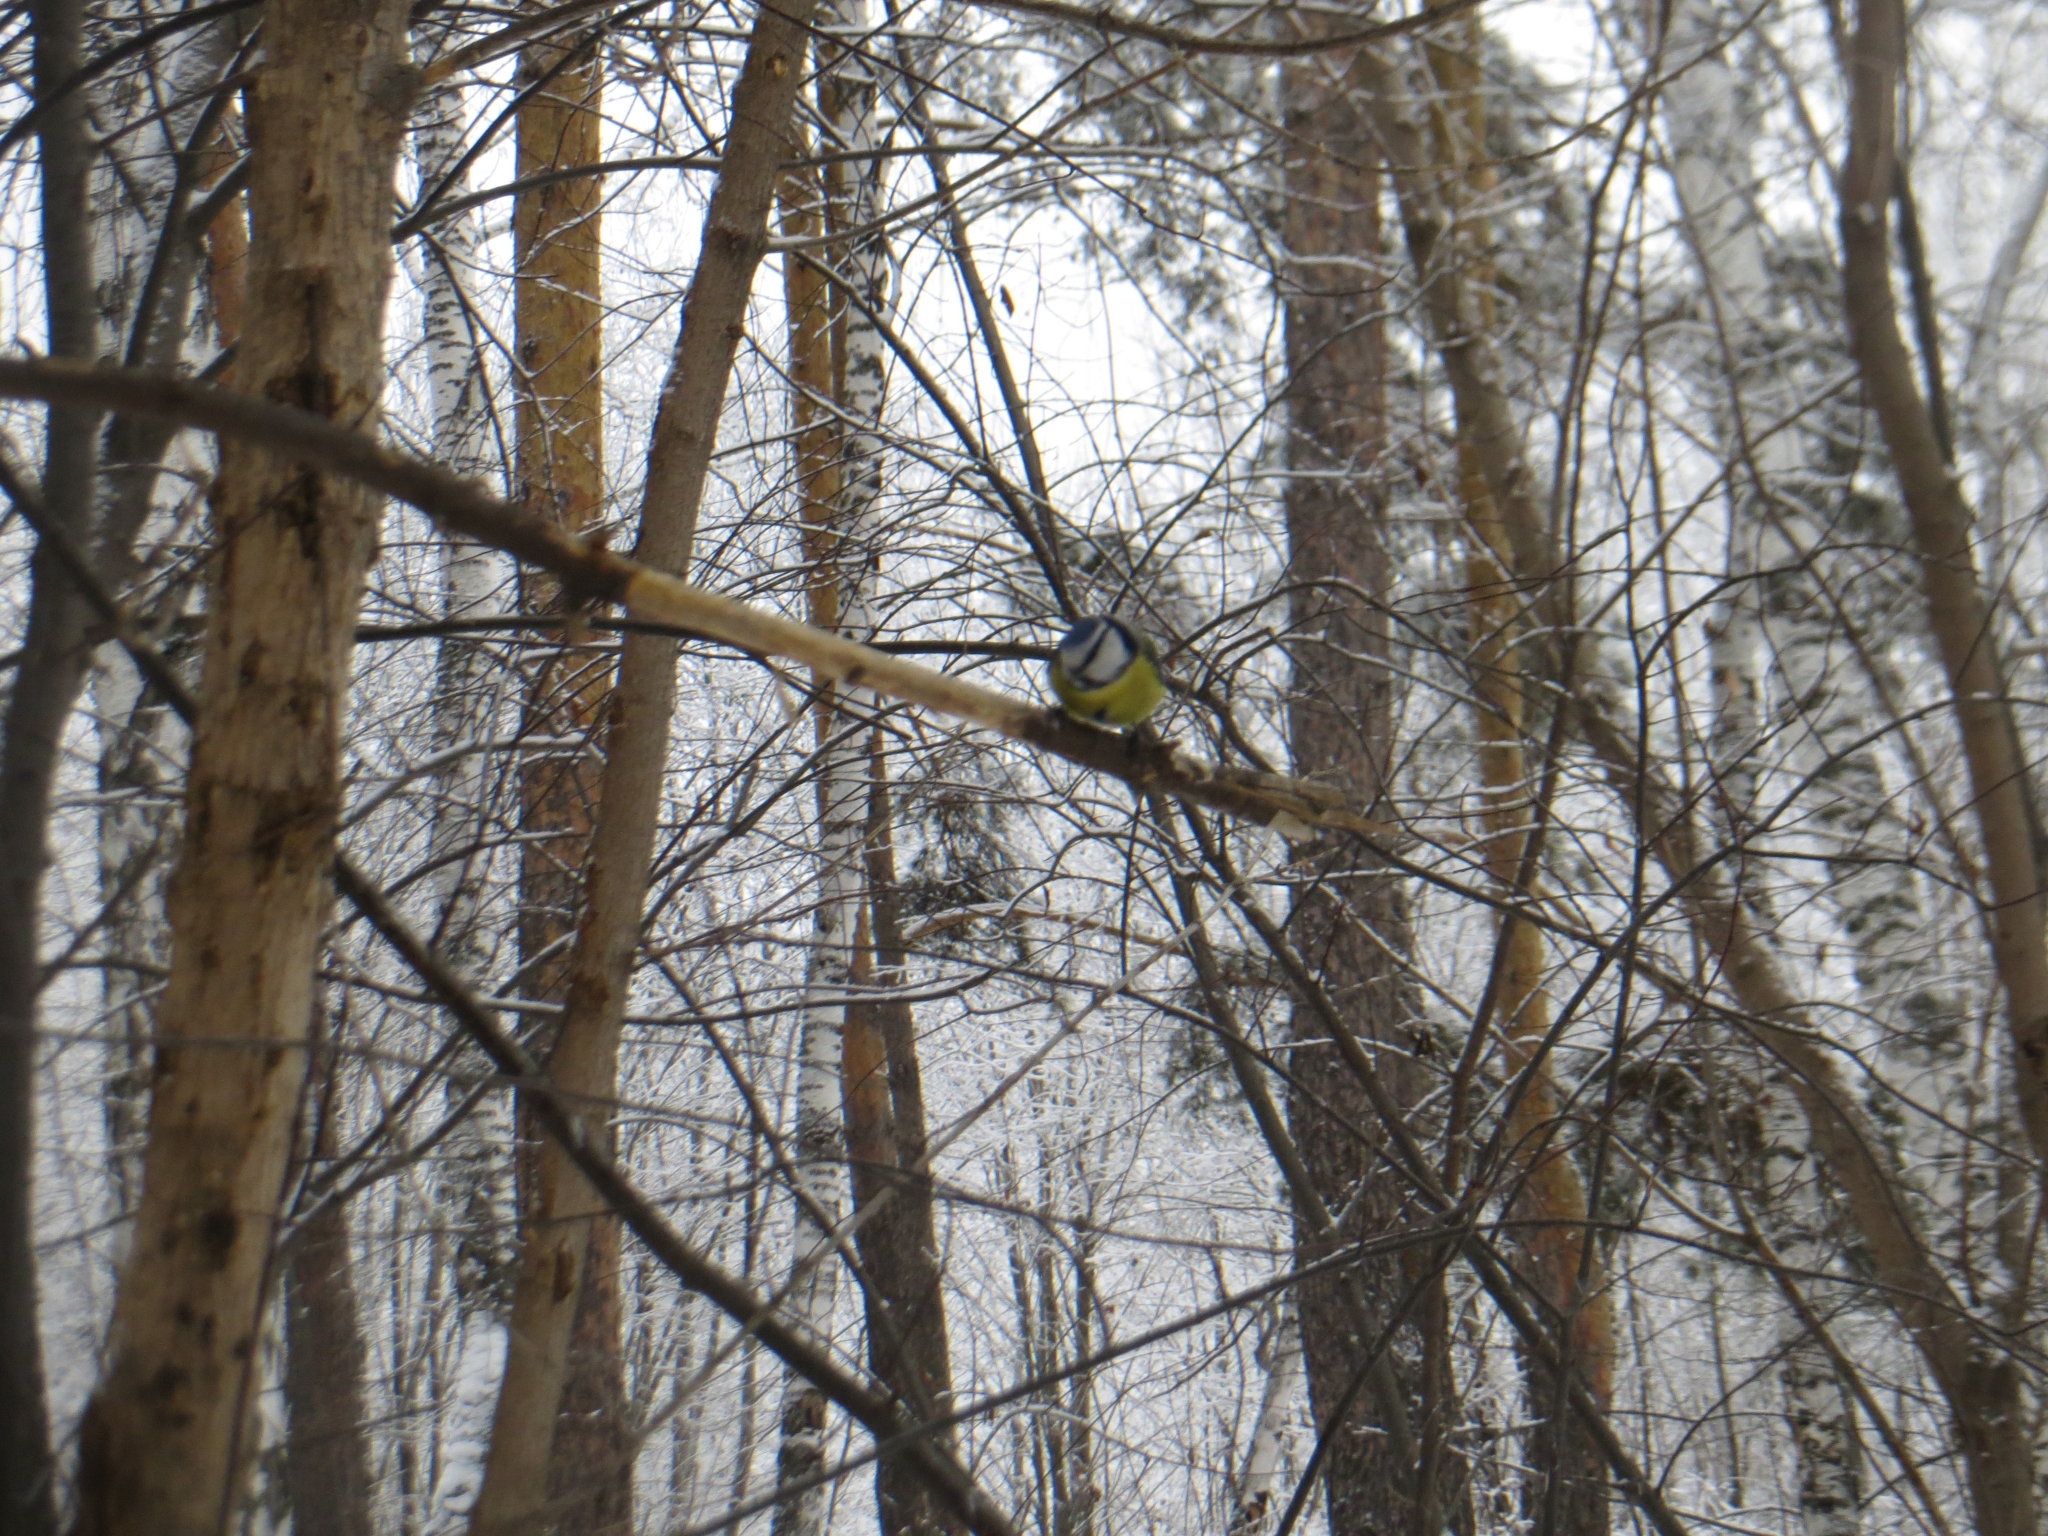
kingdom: Animalia
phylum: Chordata
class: Aves
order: Passeriformes
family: Paridae
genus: Cyanistes
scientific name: Cyanistes caeruleus
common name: Eurasian blue tit
